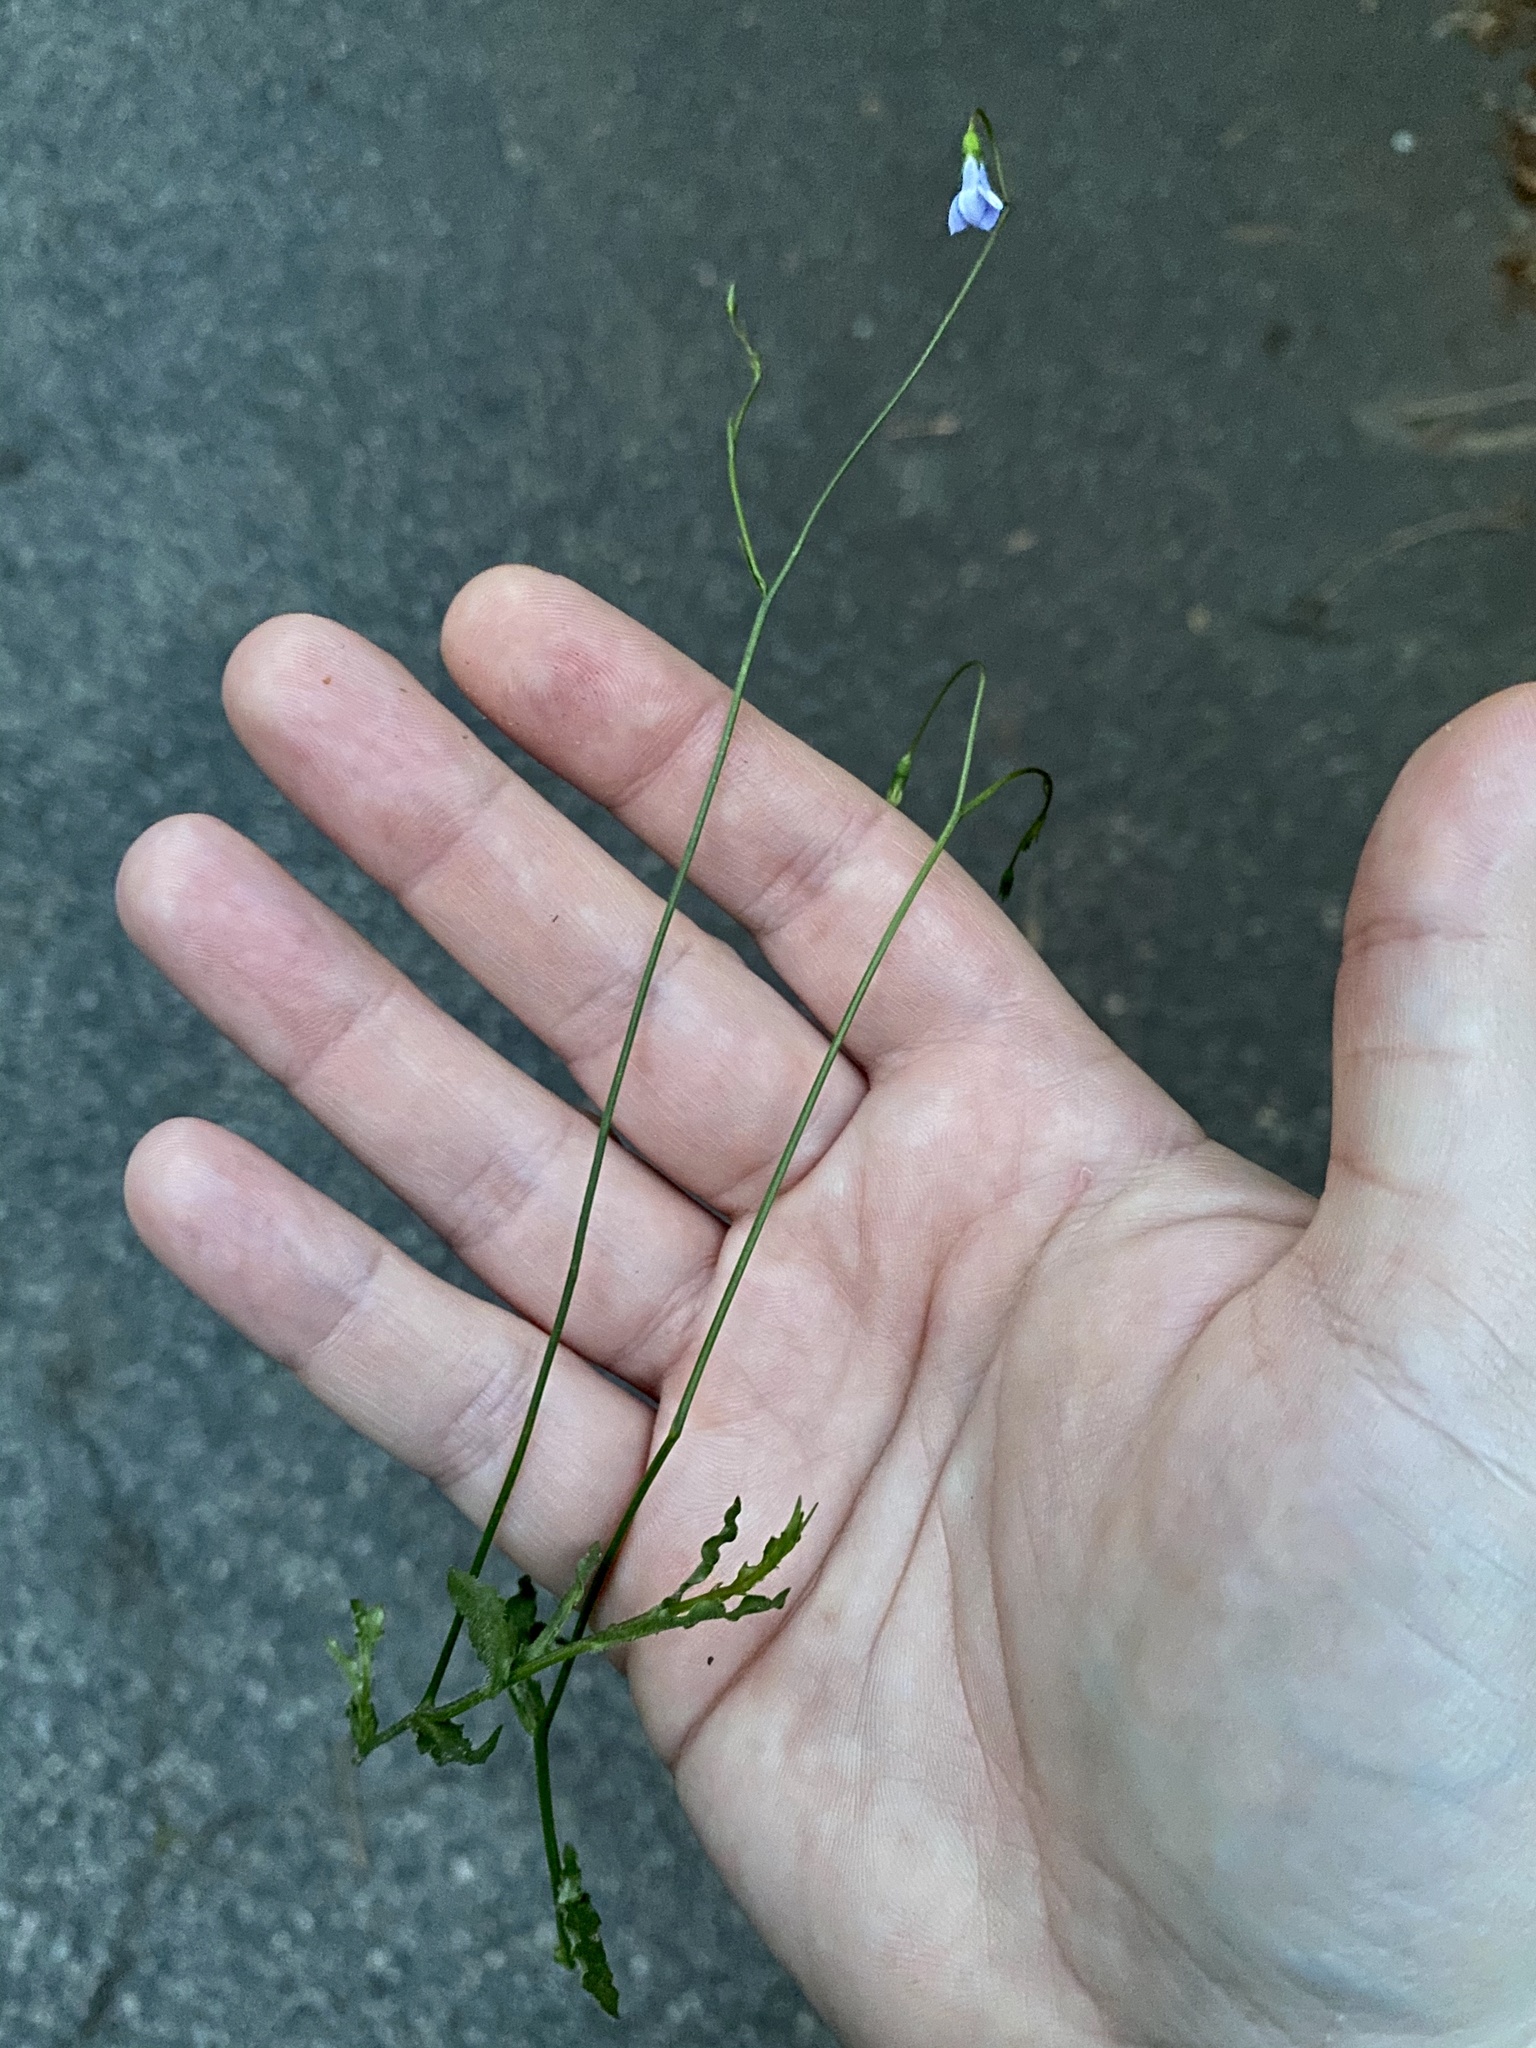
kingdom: Plantae
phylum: Tracheophyta
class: Magnoliopsida
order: Asterales
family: Campanulaceae
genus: Wahlenbergia
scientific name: Wahlenbergia marginata
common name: Southern rockbell
